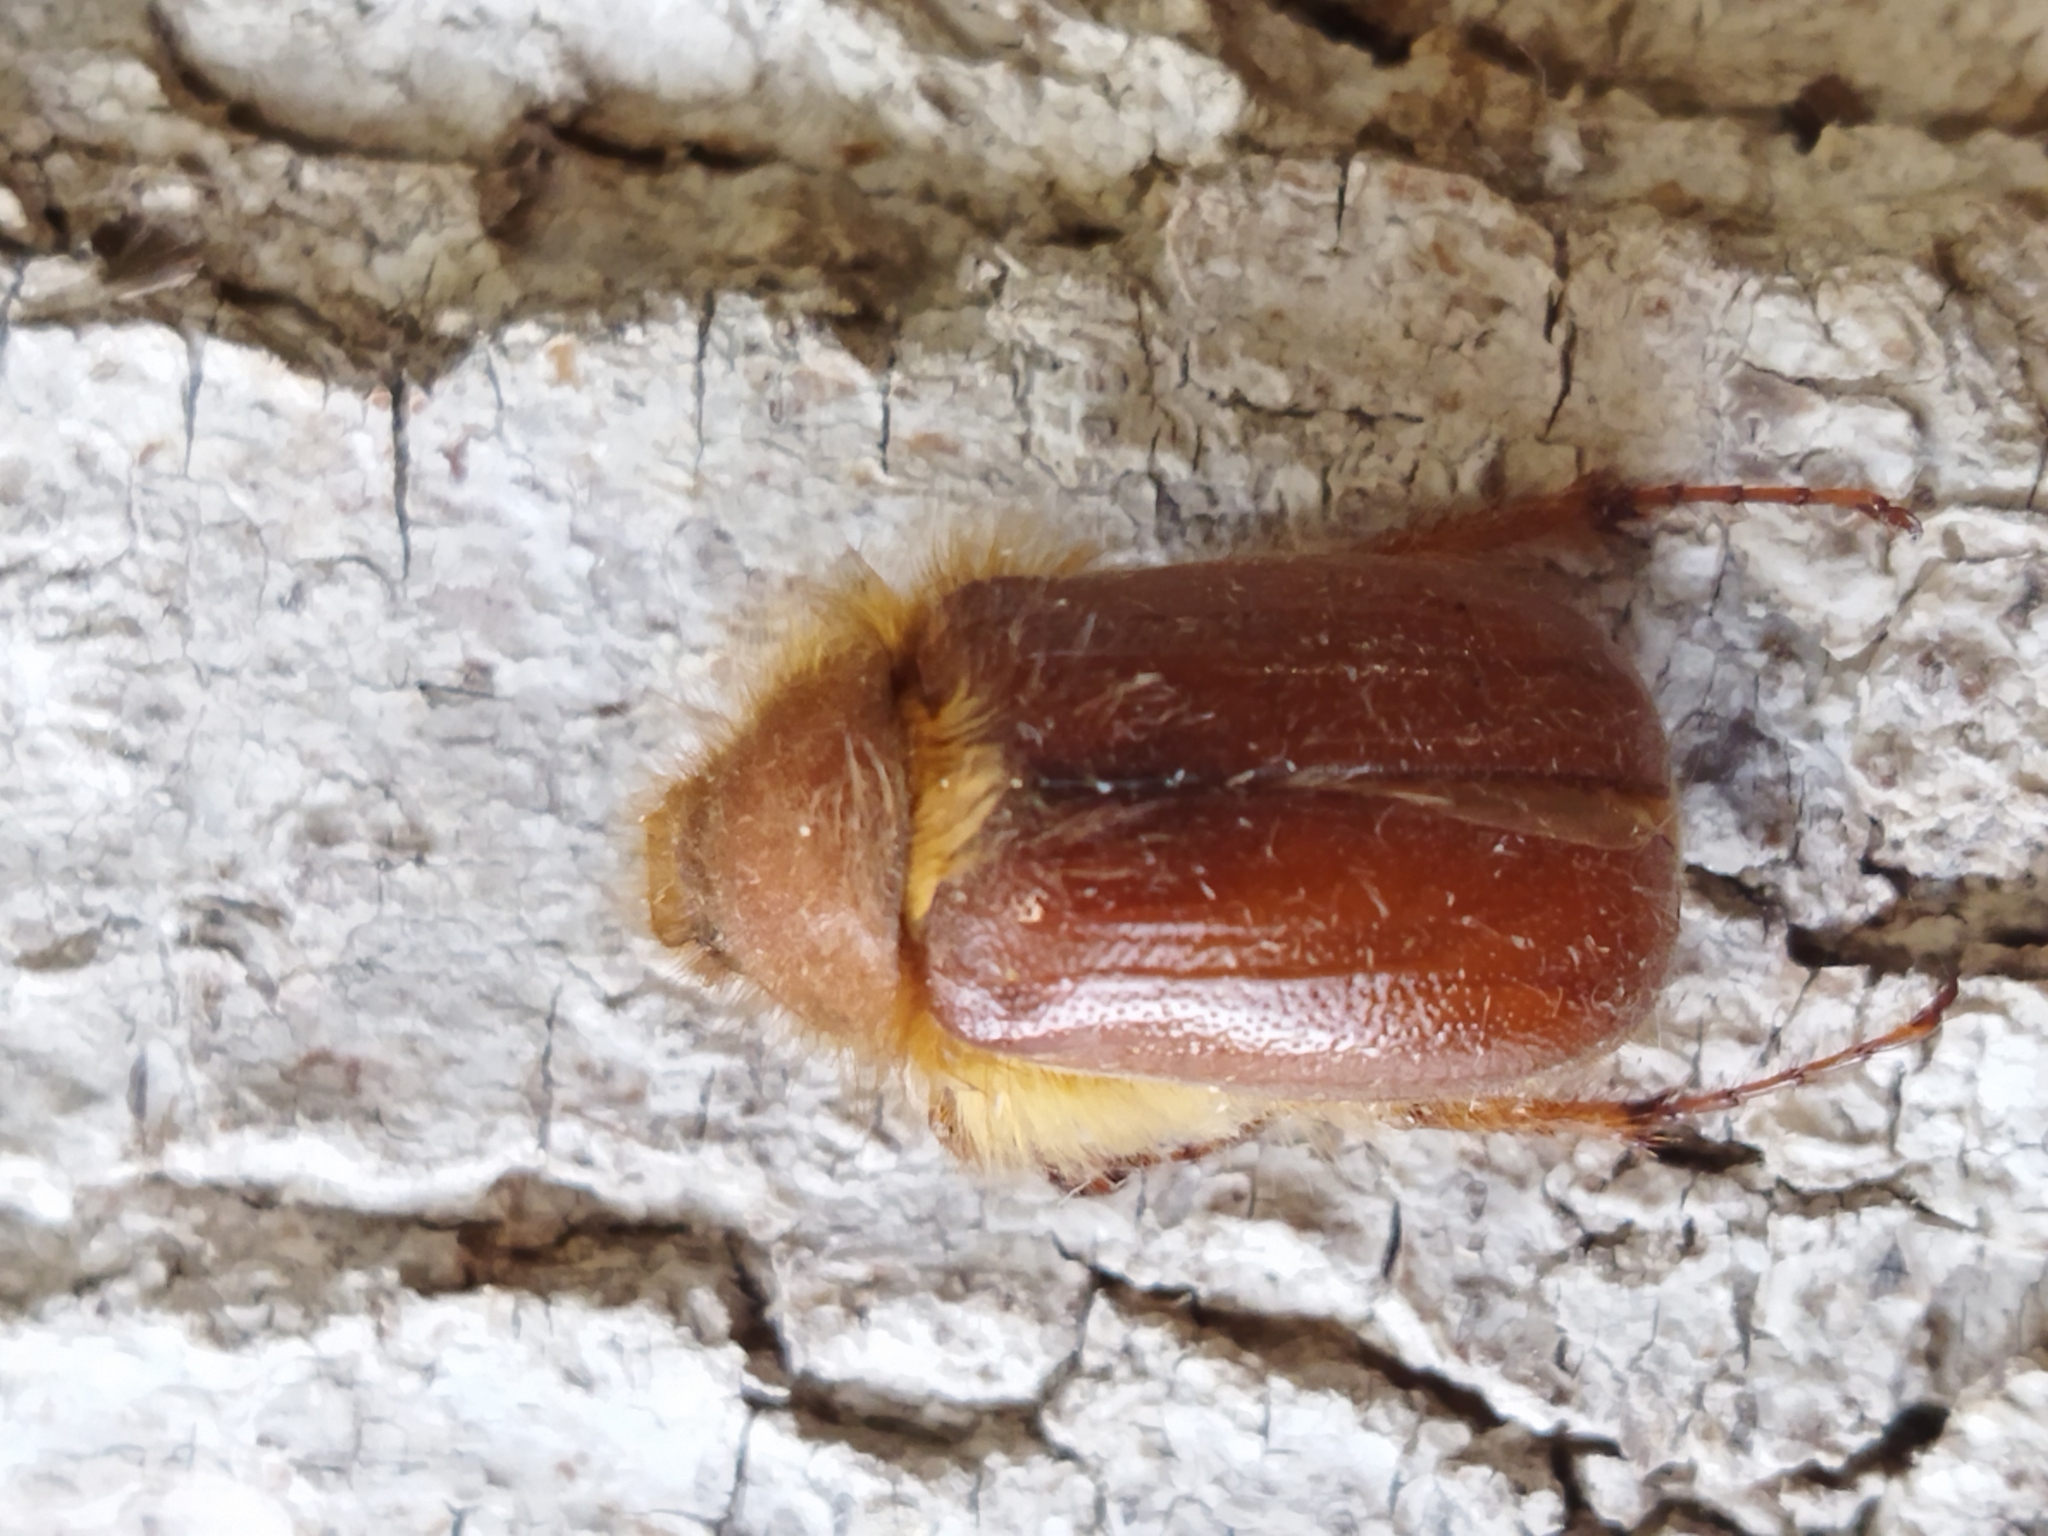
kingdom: Animalia
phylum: Arthropoda
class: Insecta
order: Coleoptera
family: Scarabaeidae
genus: Holochelus
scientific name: Holochelus aequinoctialis
